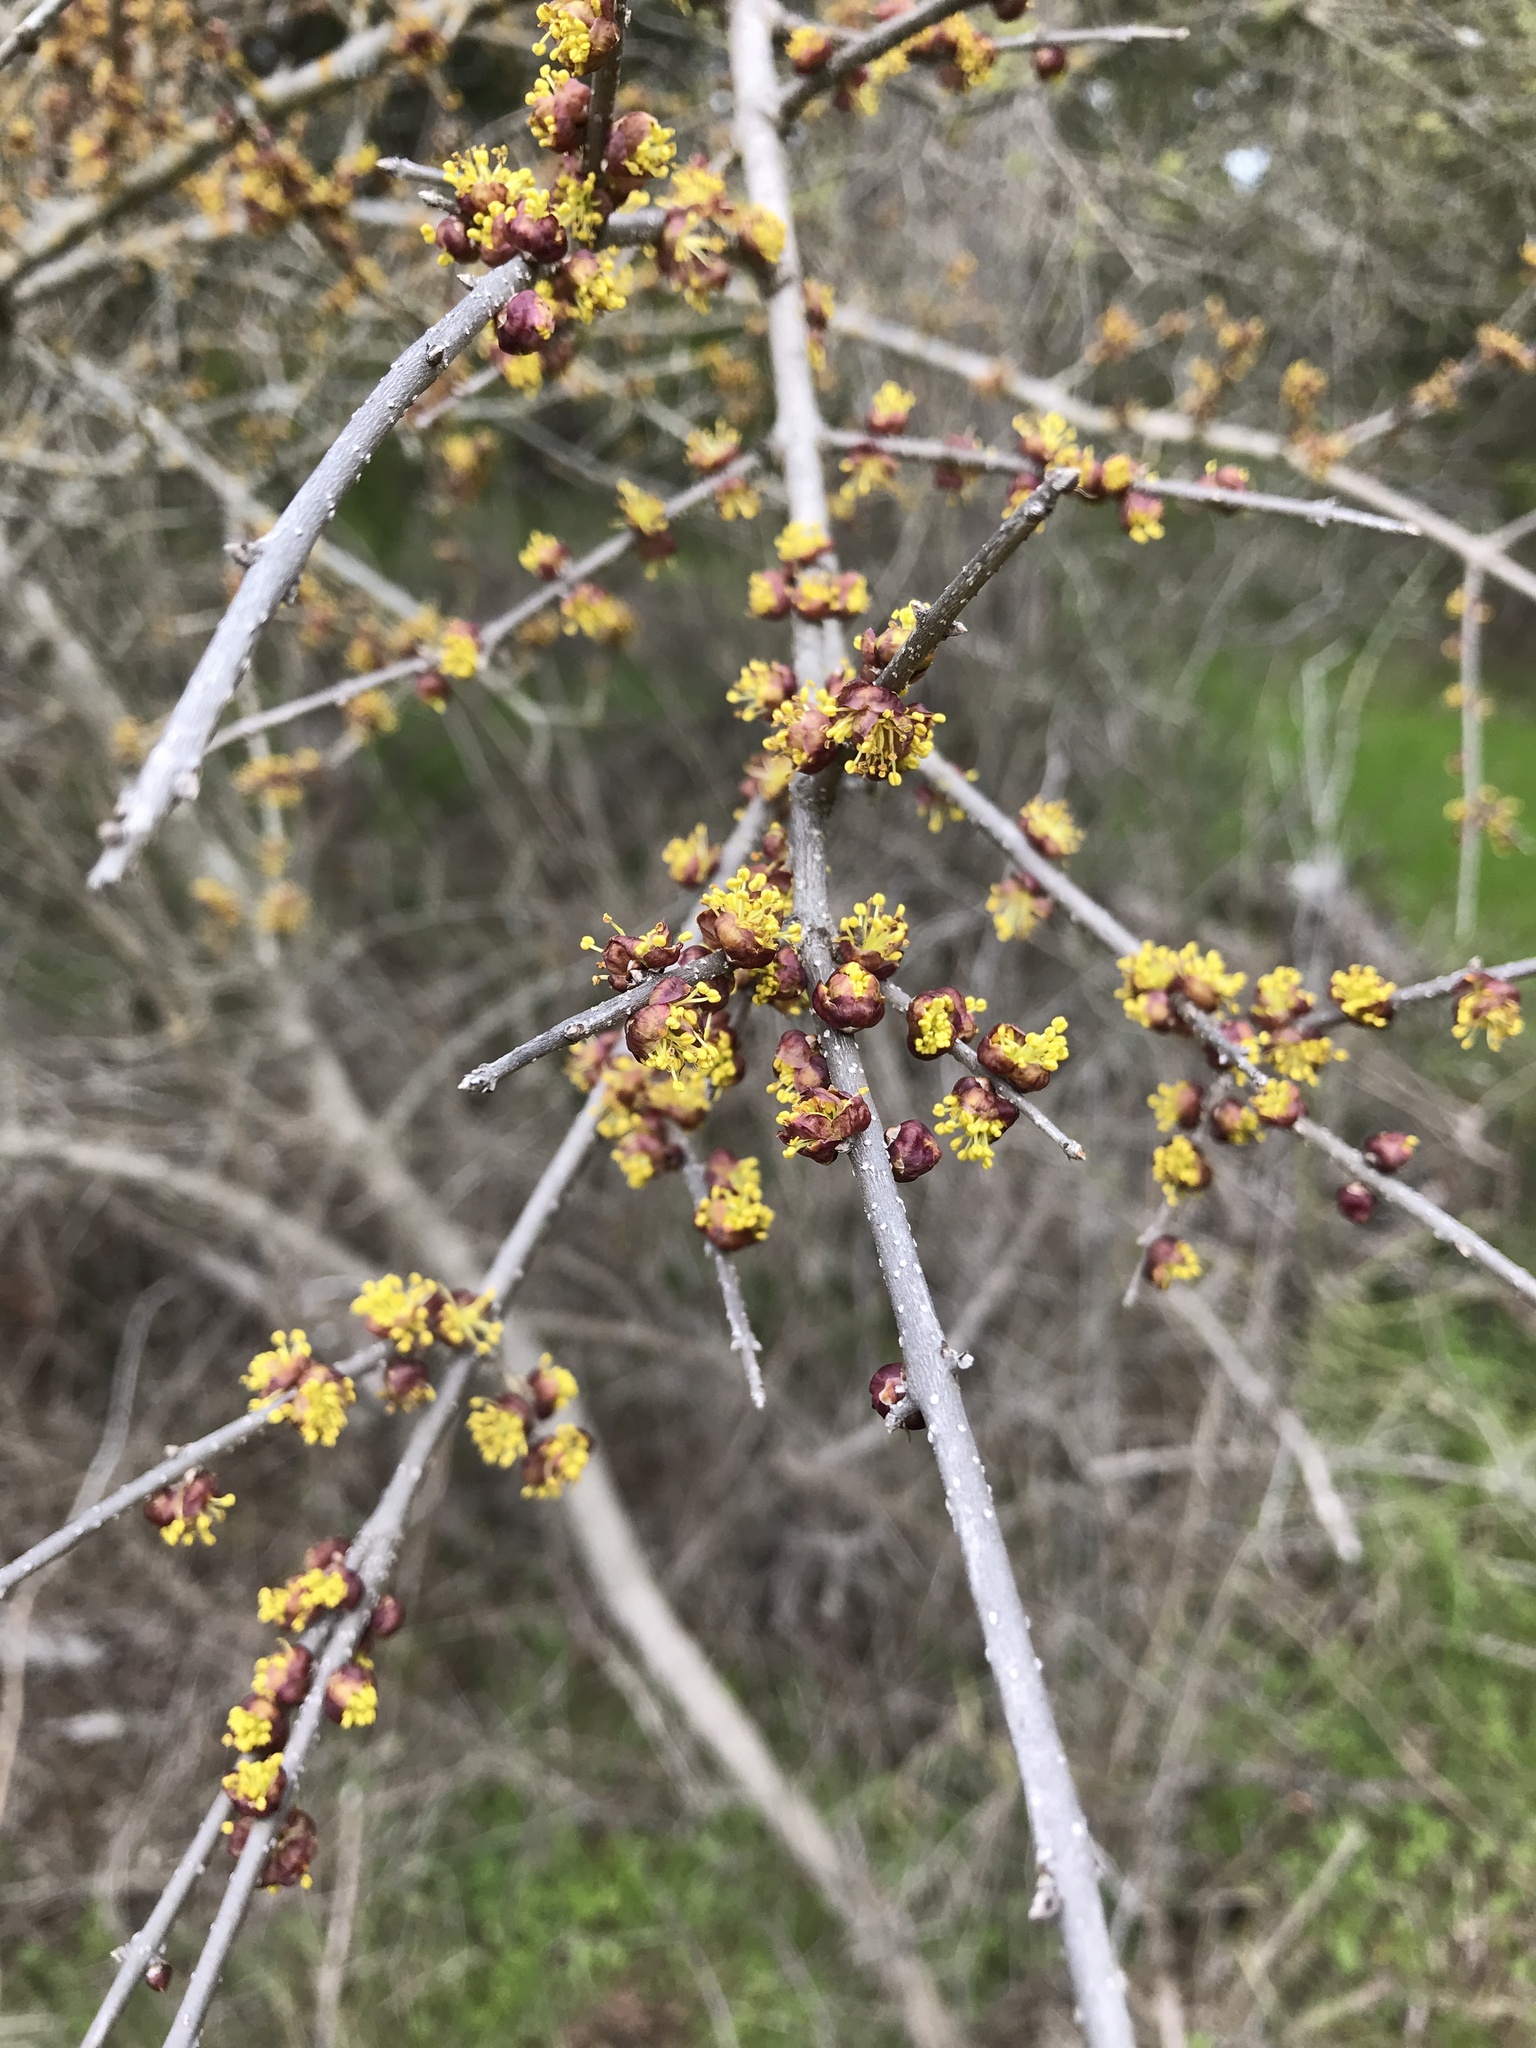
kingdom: Plantae
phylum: Tracheophyta
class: Magnoliopsida
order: Lamiales
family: Oleaceae
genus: Forestiera
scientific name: Forestiera pubescens
